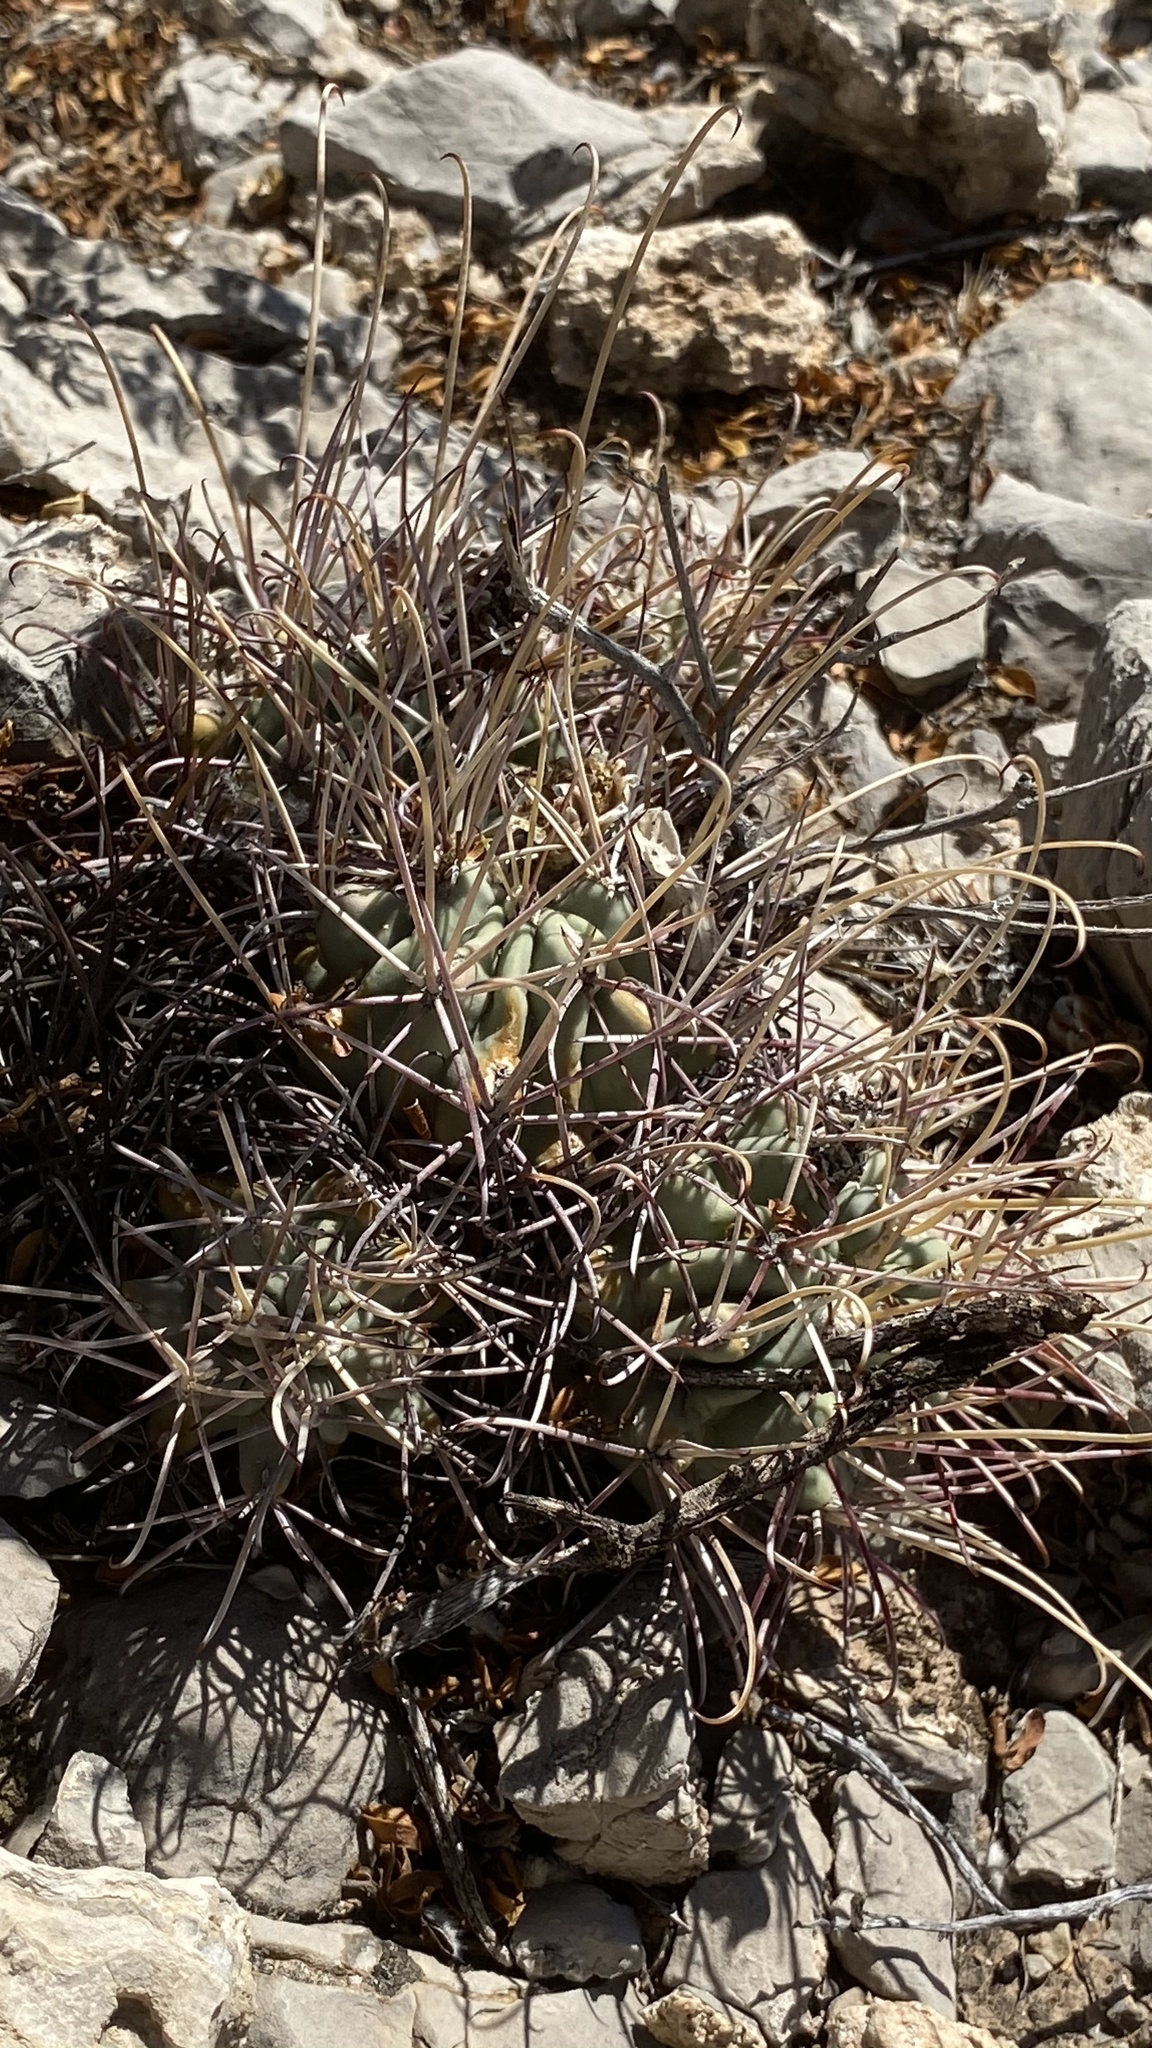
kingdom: Plantae
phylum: Tracheophyta
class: Magnoliopsida
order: Caryophyllales
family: Cactaceae
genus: Ferocactus
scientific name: Ferocactus uncinatus
